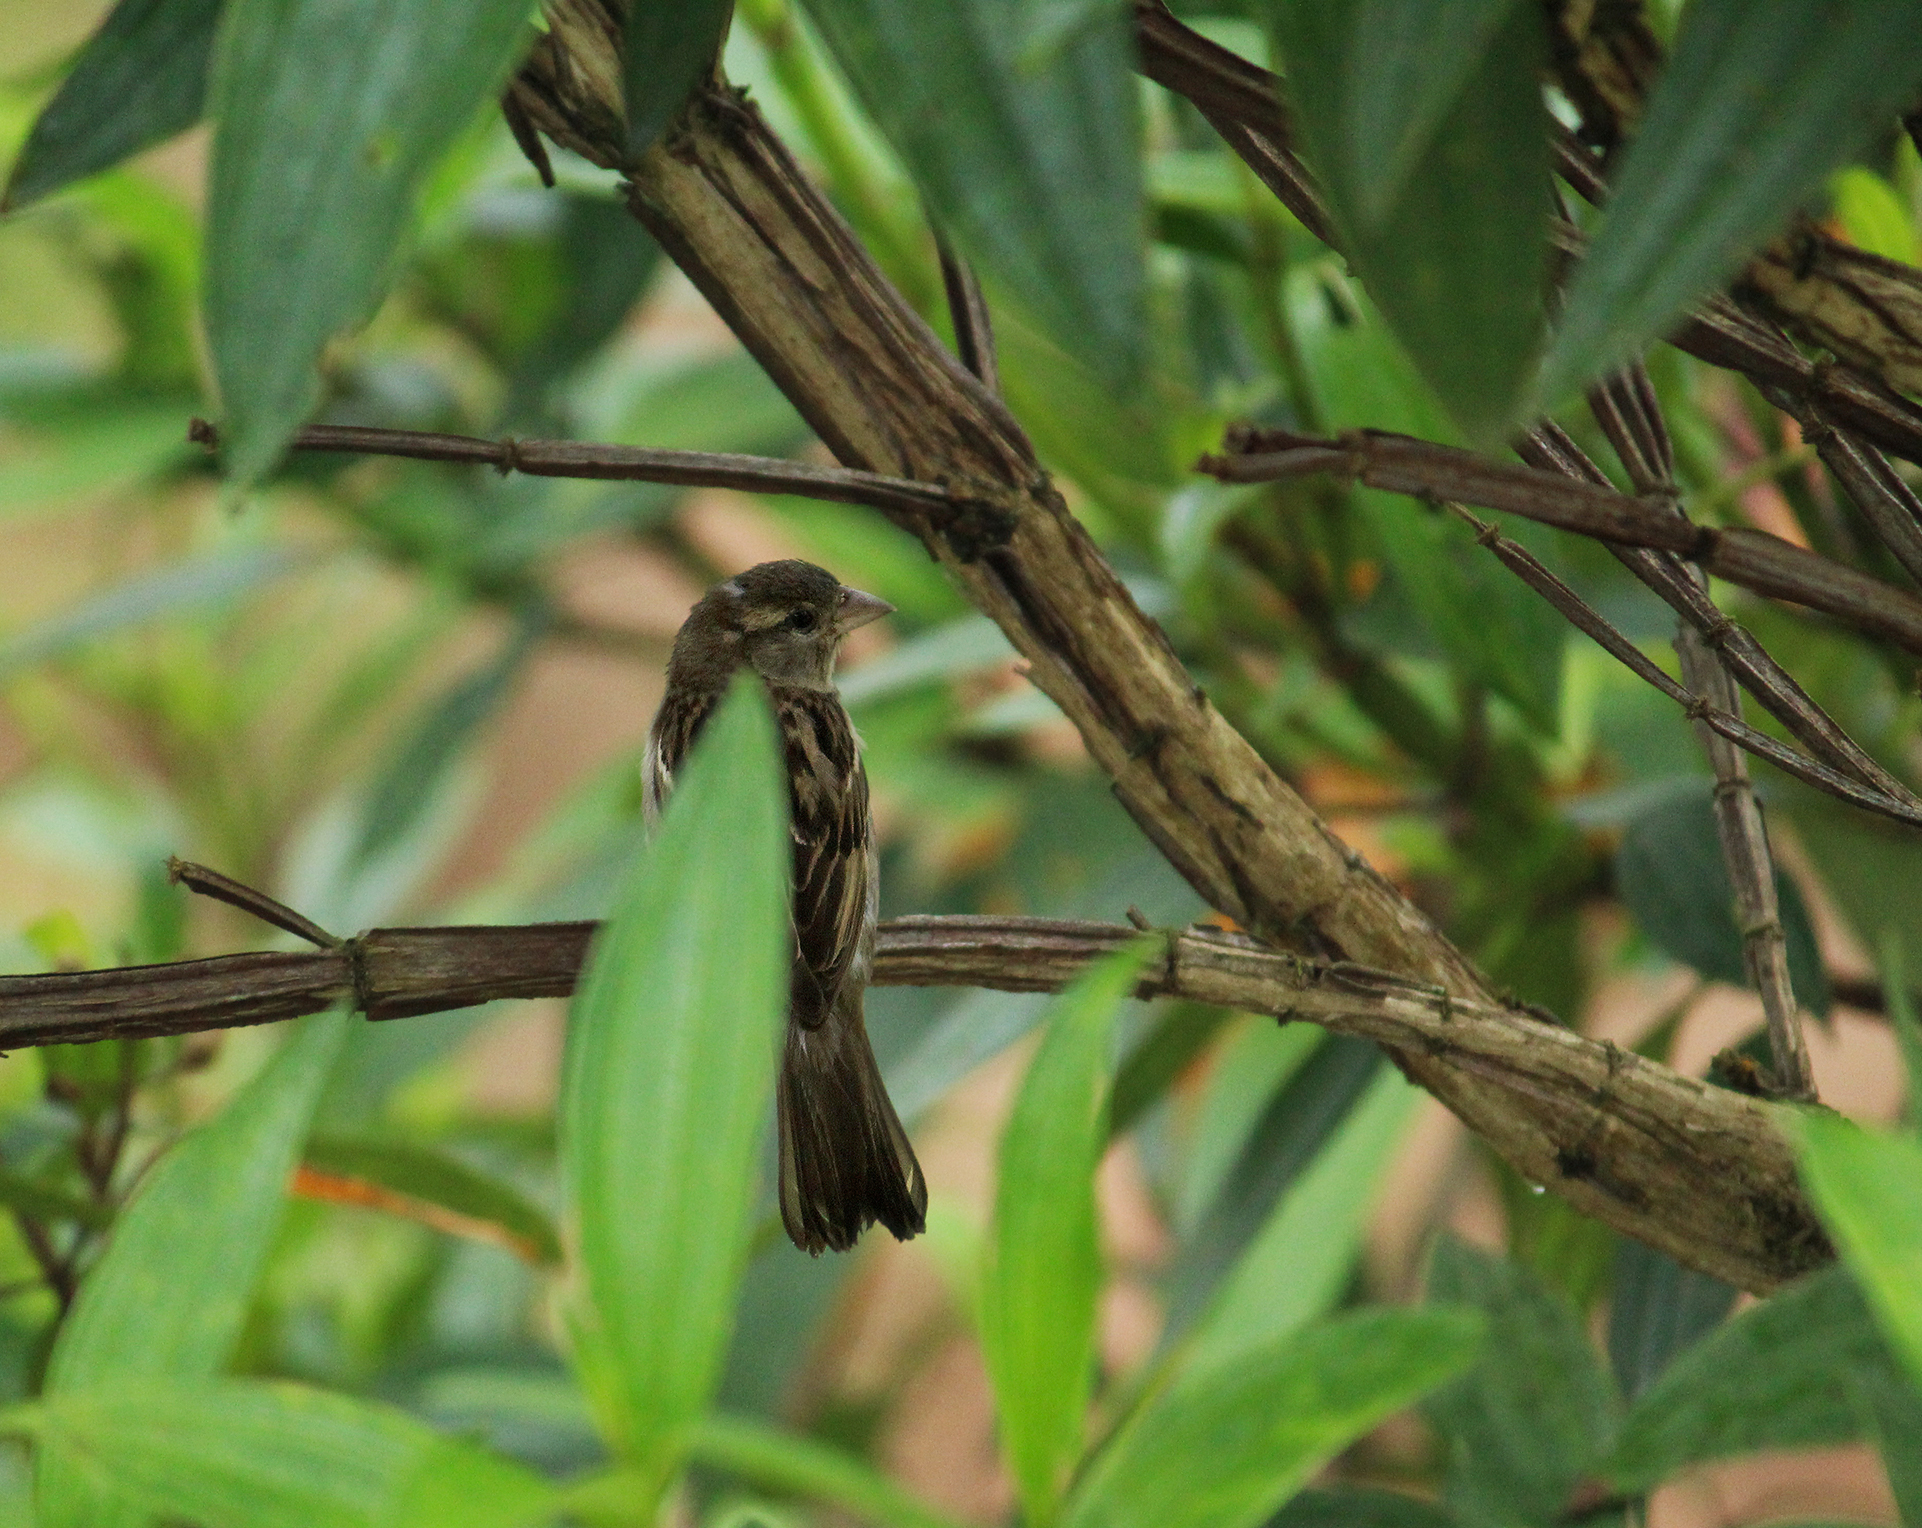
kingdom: Animalia
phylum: Chordata
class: Aves
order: Passeriformes
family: Passeridae
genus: Passer
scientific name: Passer domesticus
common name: House sparrow
